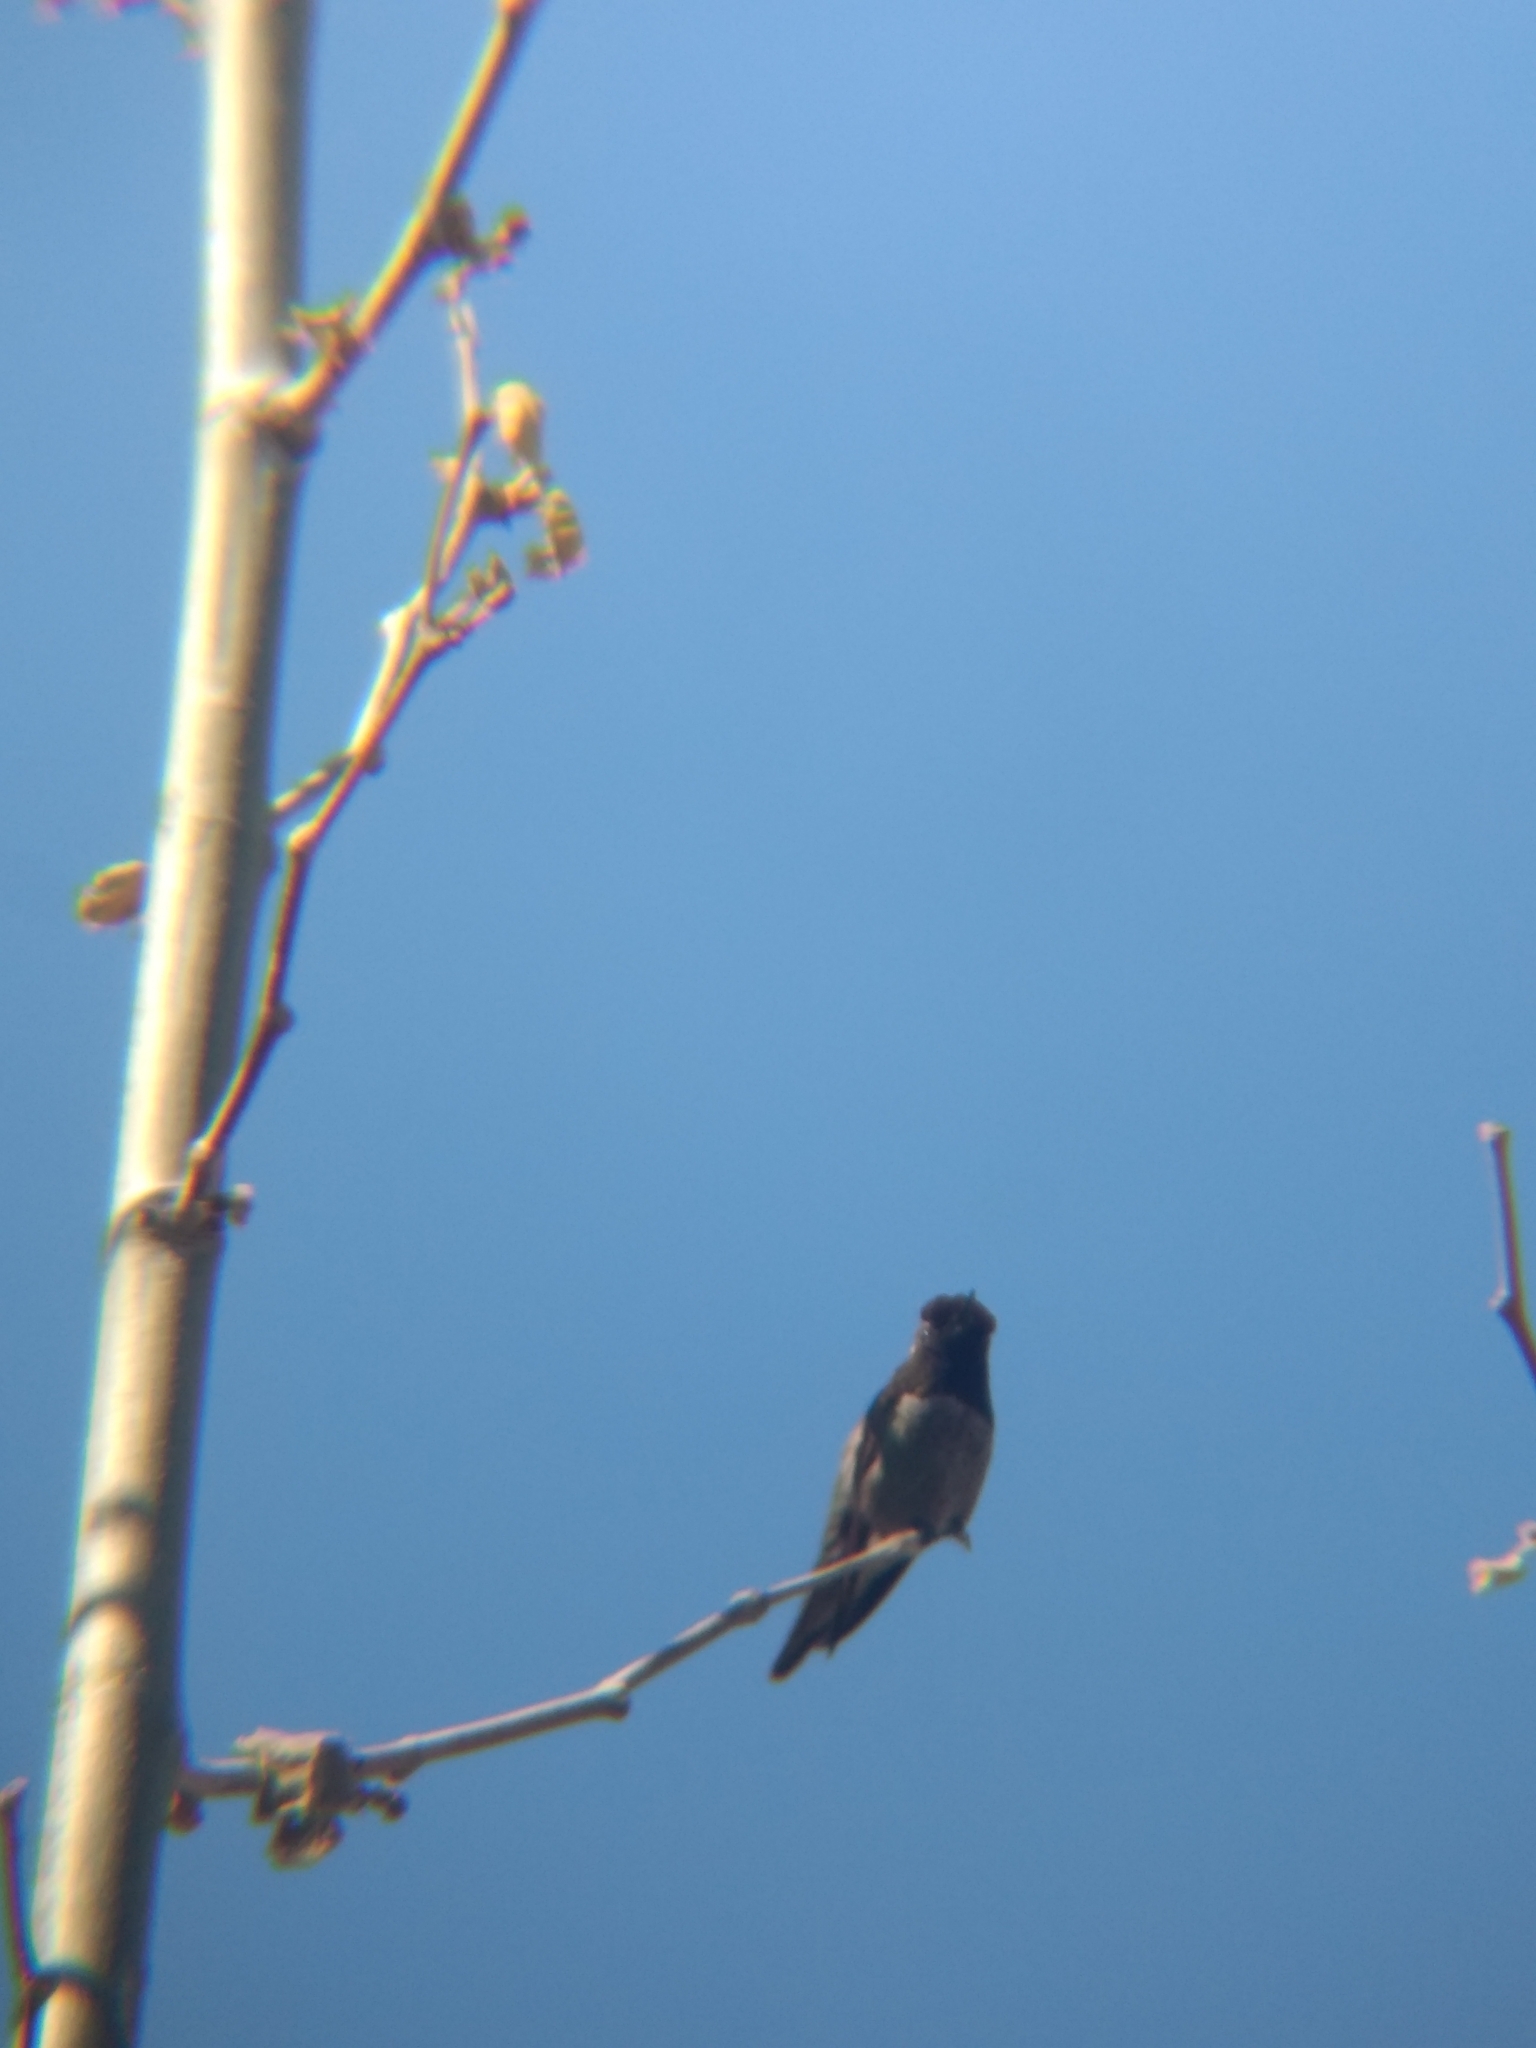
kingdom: Animalia
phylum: Chordata
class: Aves
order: Apodiformes
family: Trochilidae
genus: Calypte
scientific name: Calypte anna
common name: Anna's hummingbird
